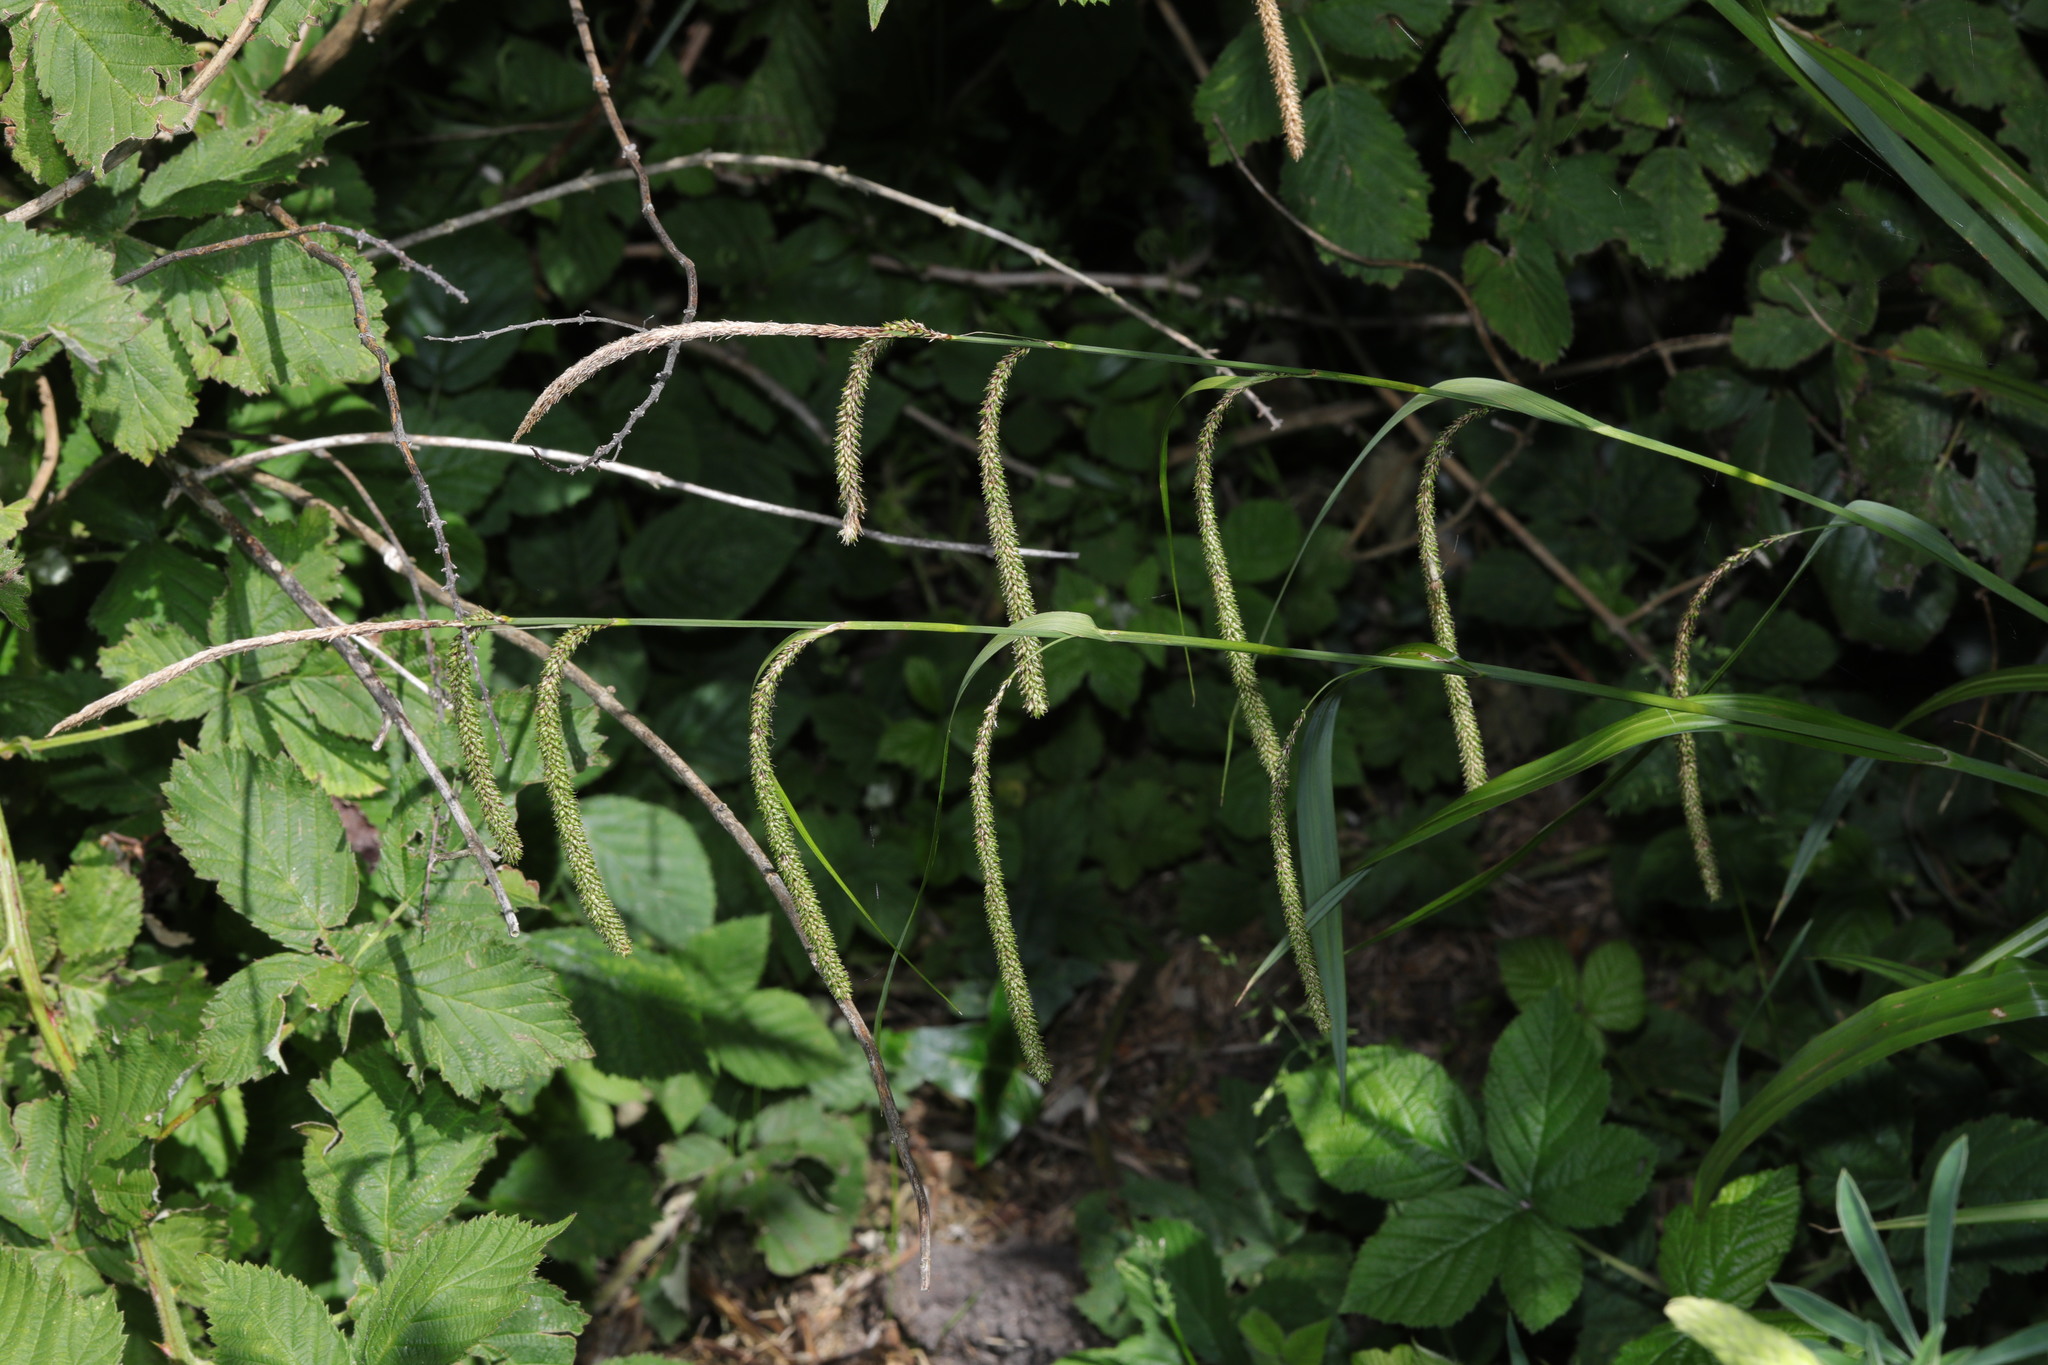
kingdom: Plantae
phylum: Tracheophyta
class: Liliopsida
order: Poales
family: Cyperaceae
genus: Carex
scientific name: Carex pendula
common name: Pendulous sedge
